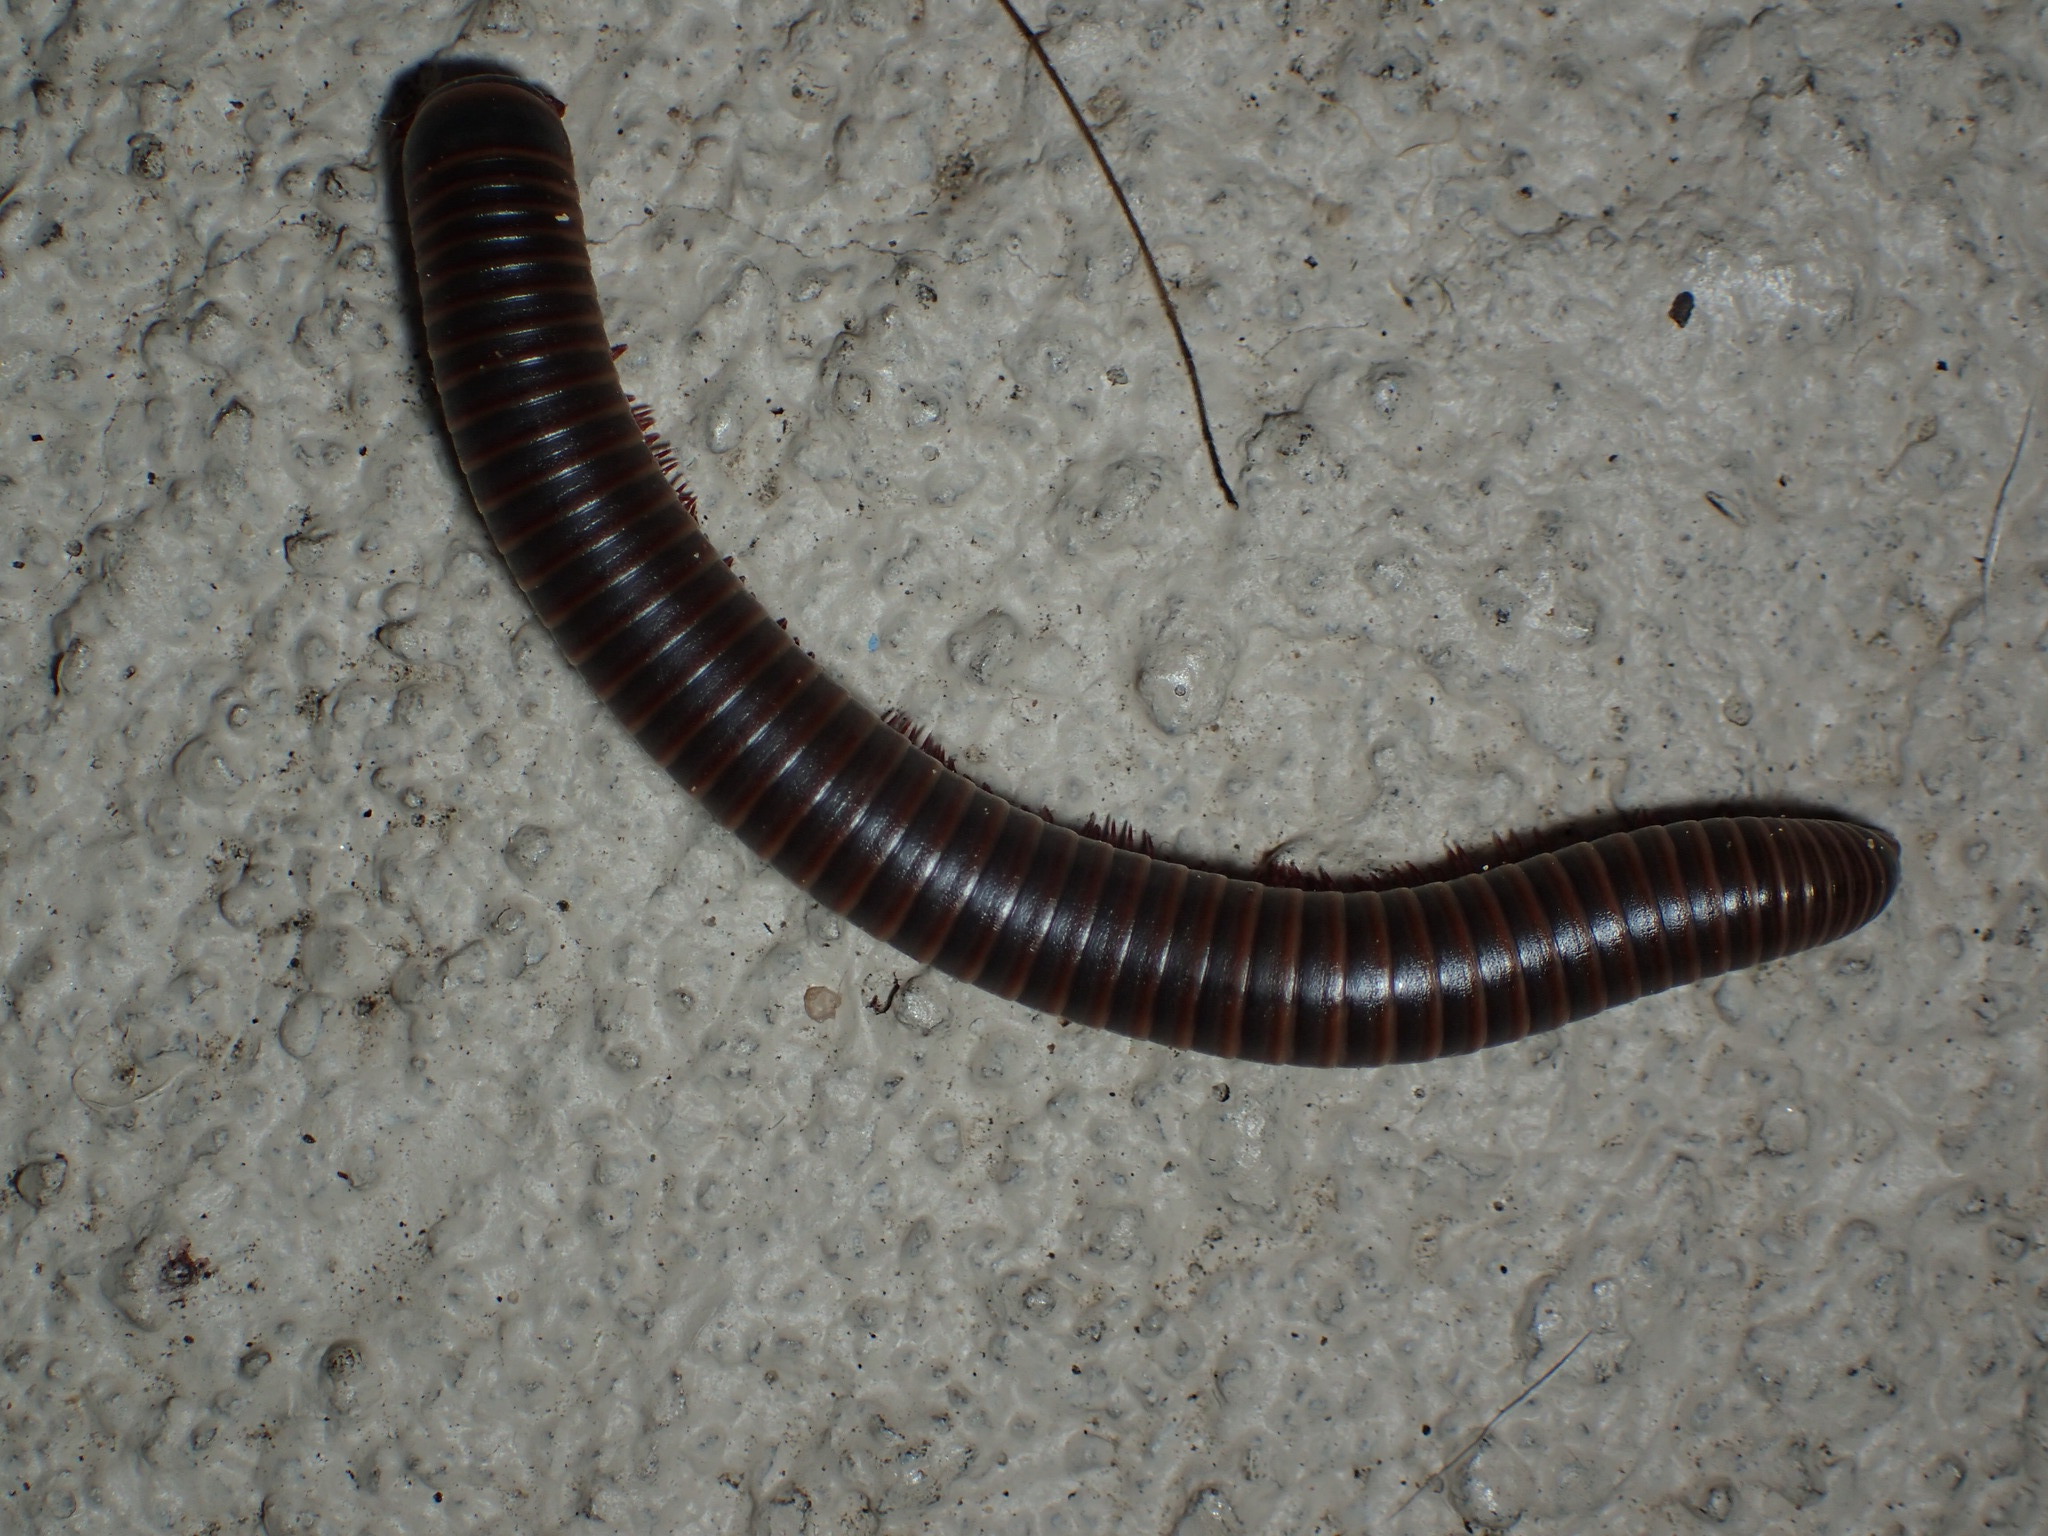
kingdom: Animalia
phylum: Arthropoda
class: Diplopoda
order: Spirobolida
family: Spirobolidae
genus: Narceus
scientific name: Narceus
